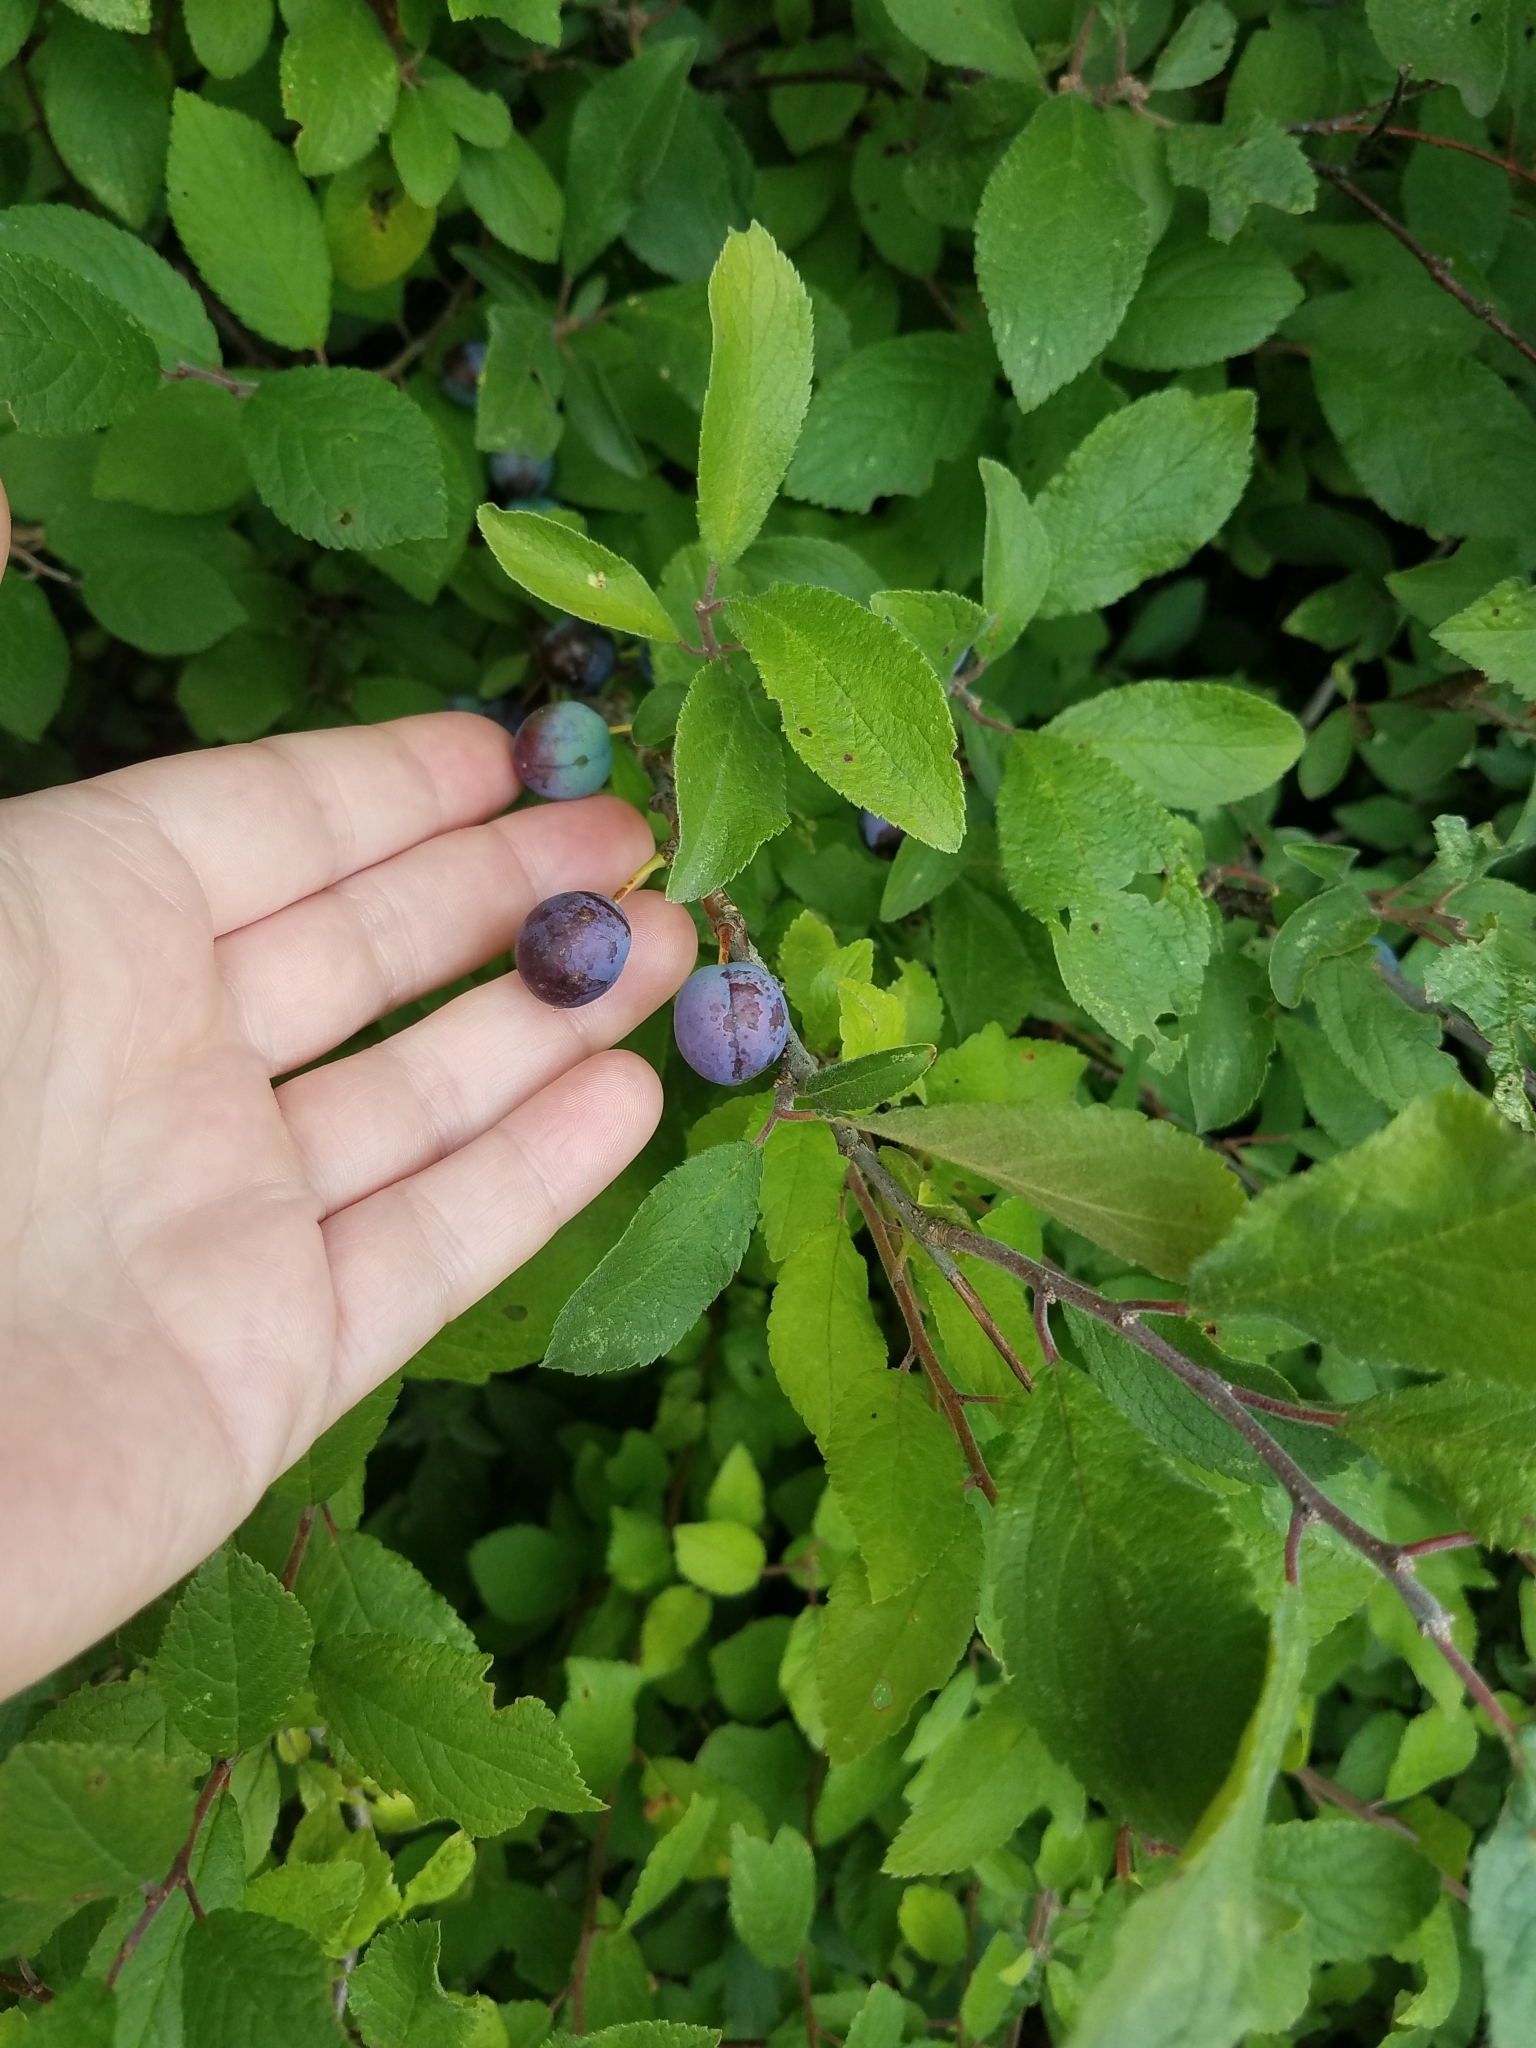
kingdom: Plantae
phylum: Tracheophyta
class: Magnoliopsida
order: Rosales
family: Rosaceae
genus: Prunus
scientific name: Prunus spinosa
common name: Blackthorn
